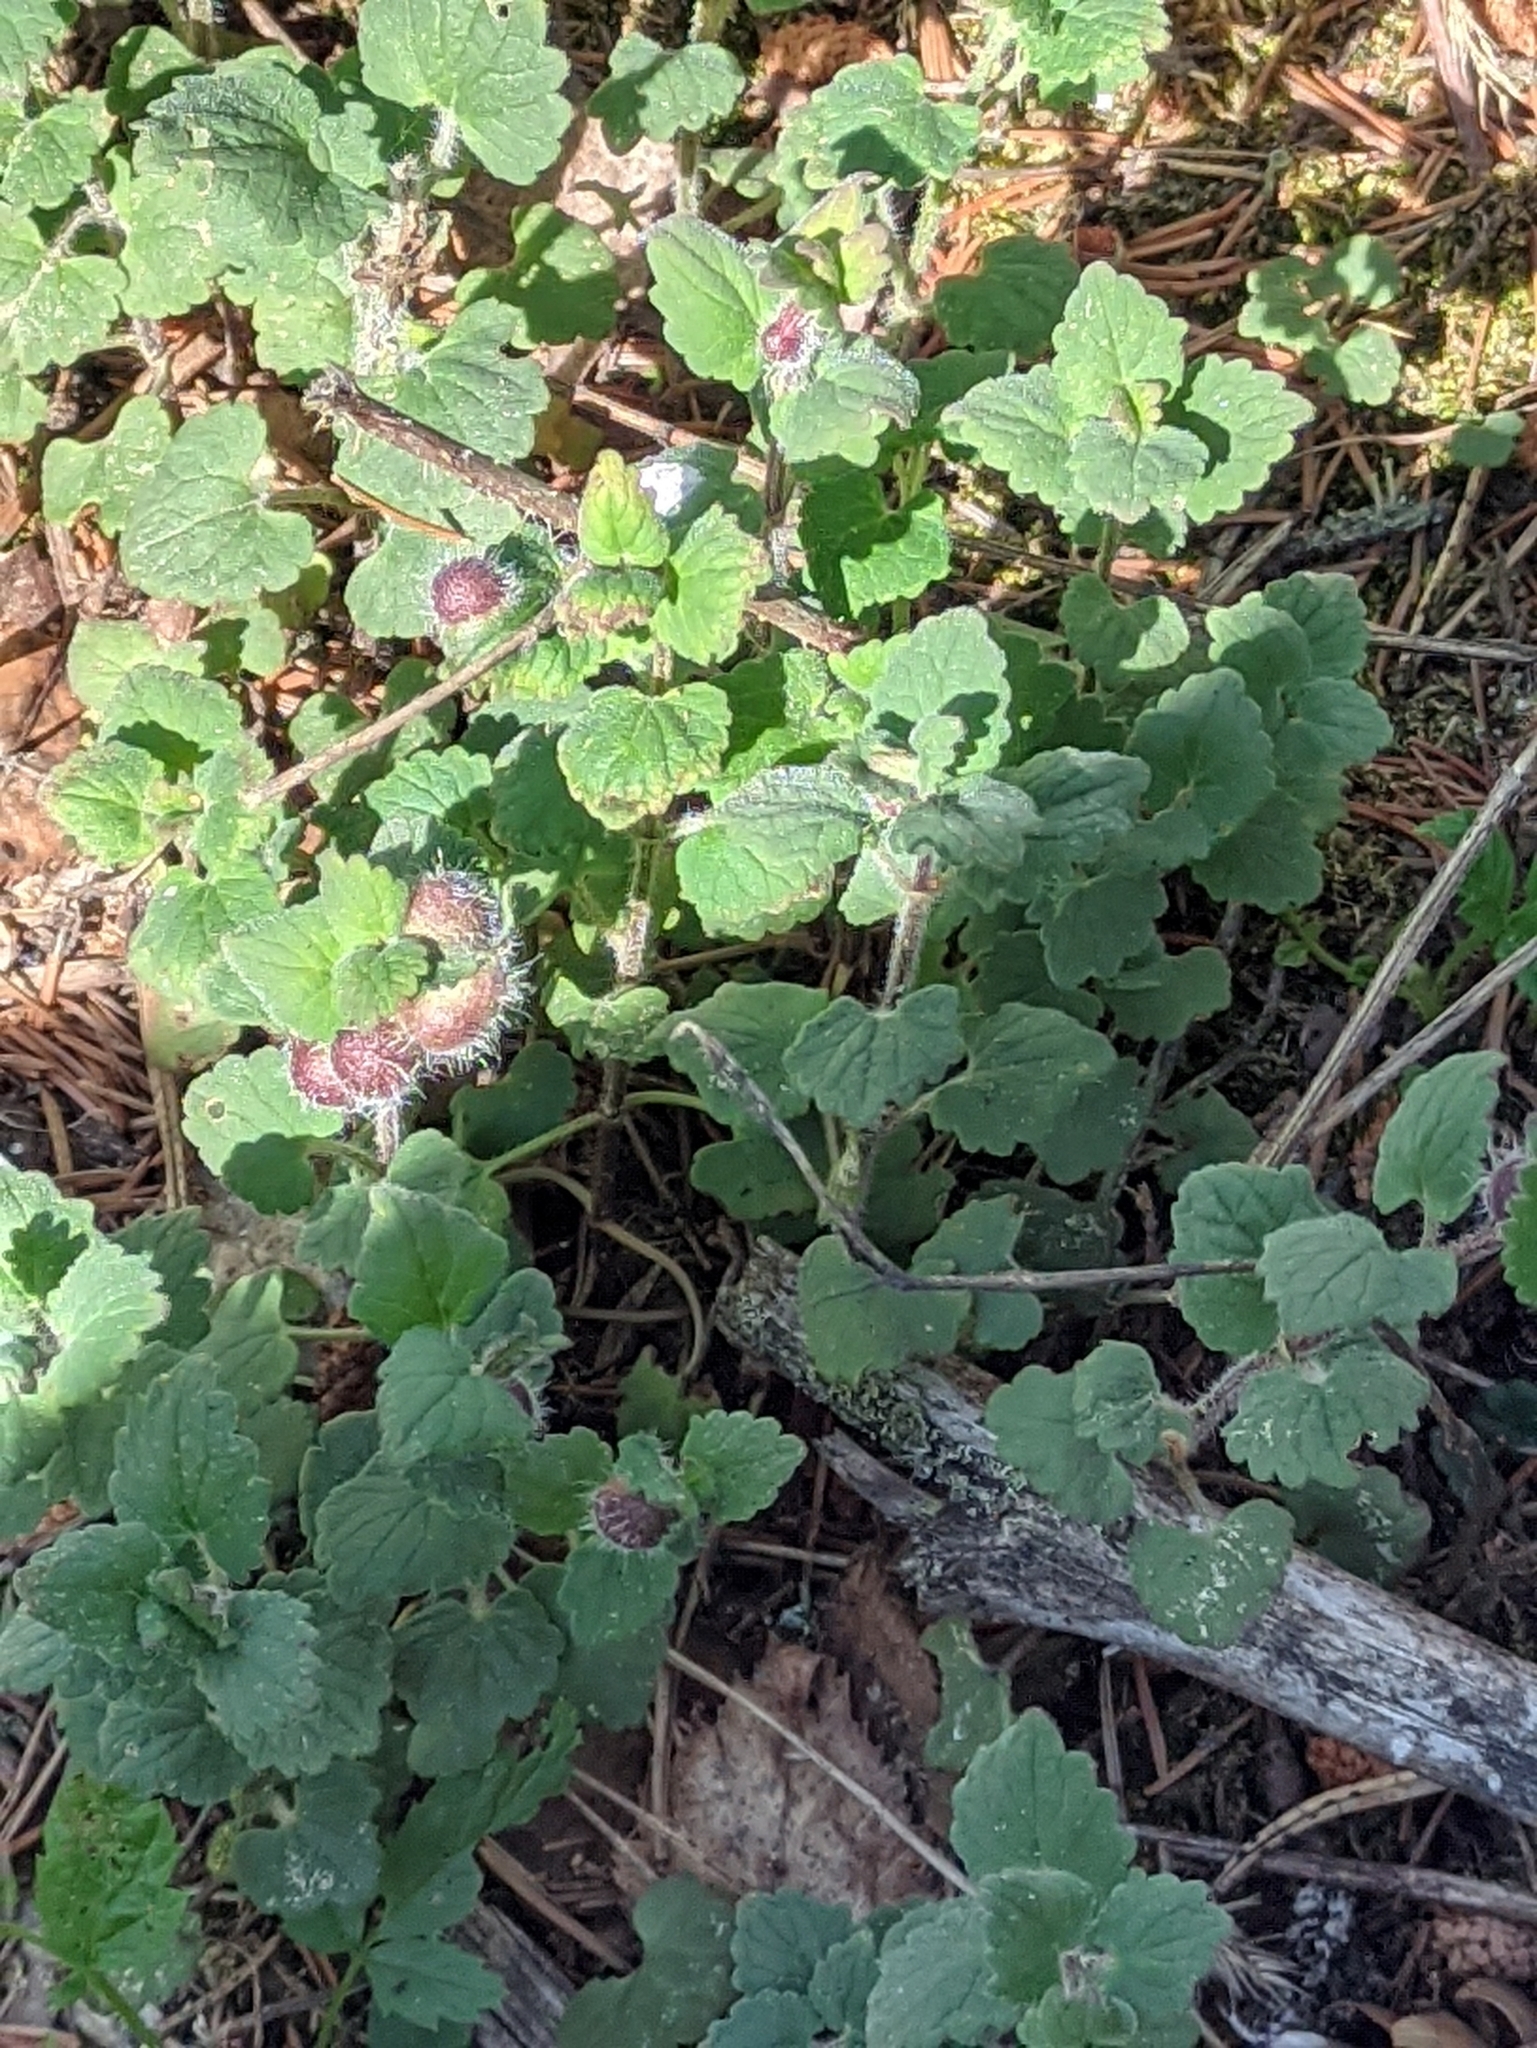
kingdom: Plantae
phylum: Tracheophyta
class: Magnoliopsida
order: Lamiales
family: Lamiaceae
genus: Glechoma
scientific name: Glechoma hederacea
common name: Ground ivy
